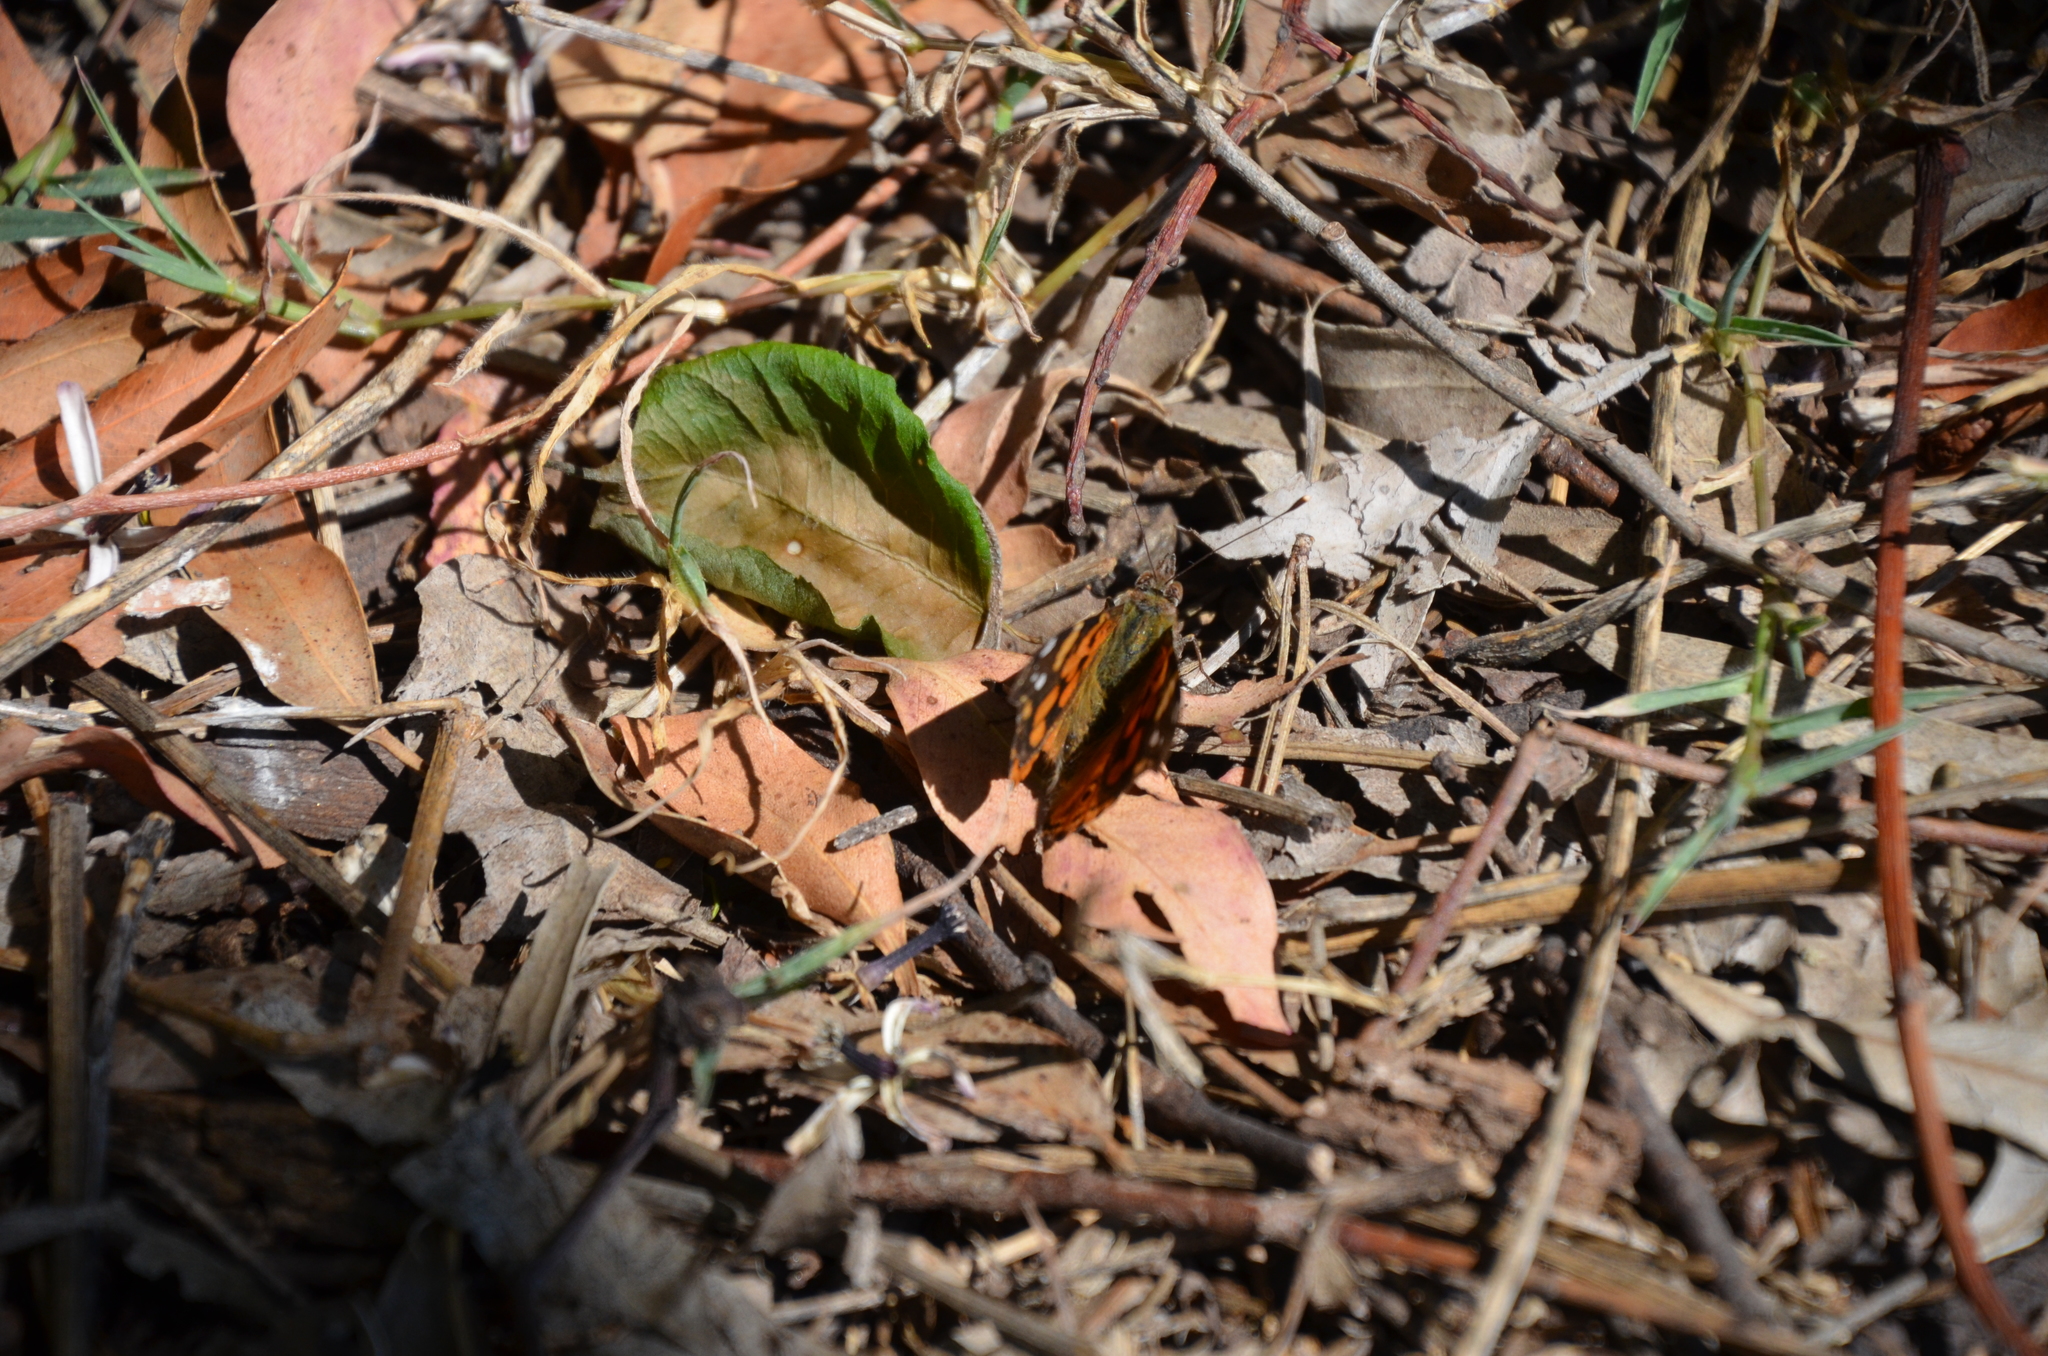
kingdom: Animalia
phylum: Arthropoda
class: Insecta
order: Lepidoptera
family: Nymphalidae
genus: Vanessa
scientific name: Vanessa carye
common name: Subtropical lady
